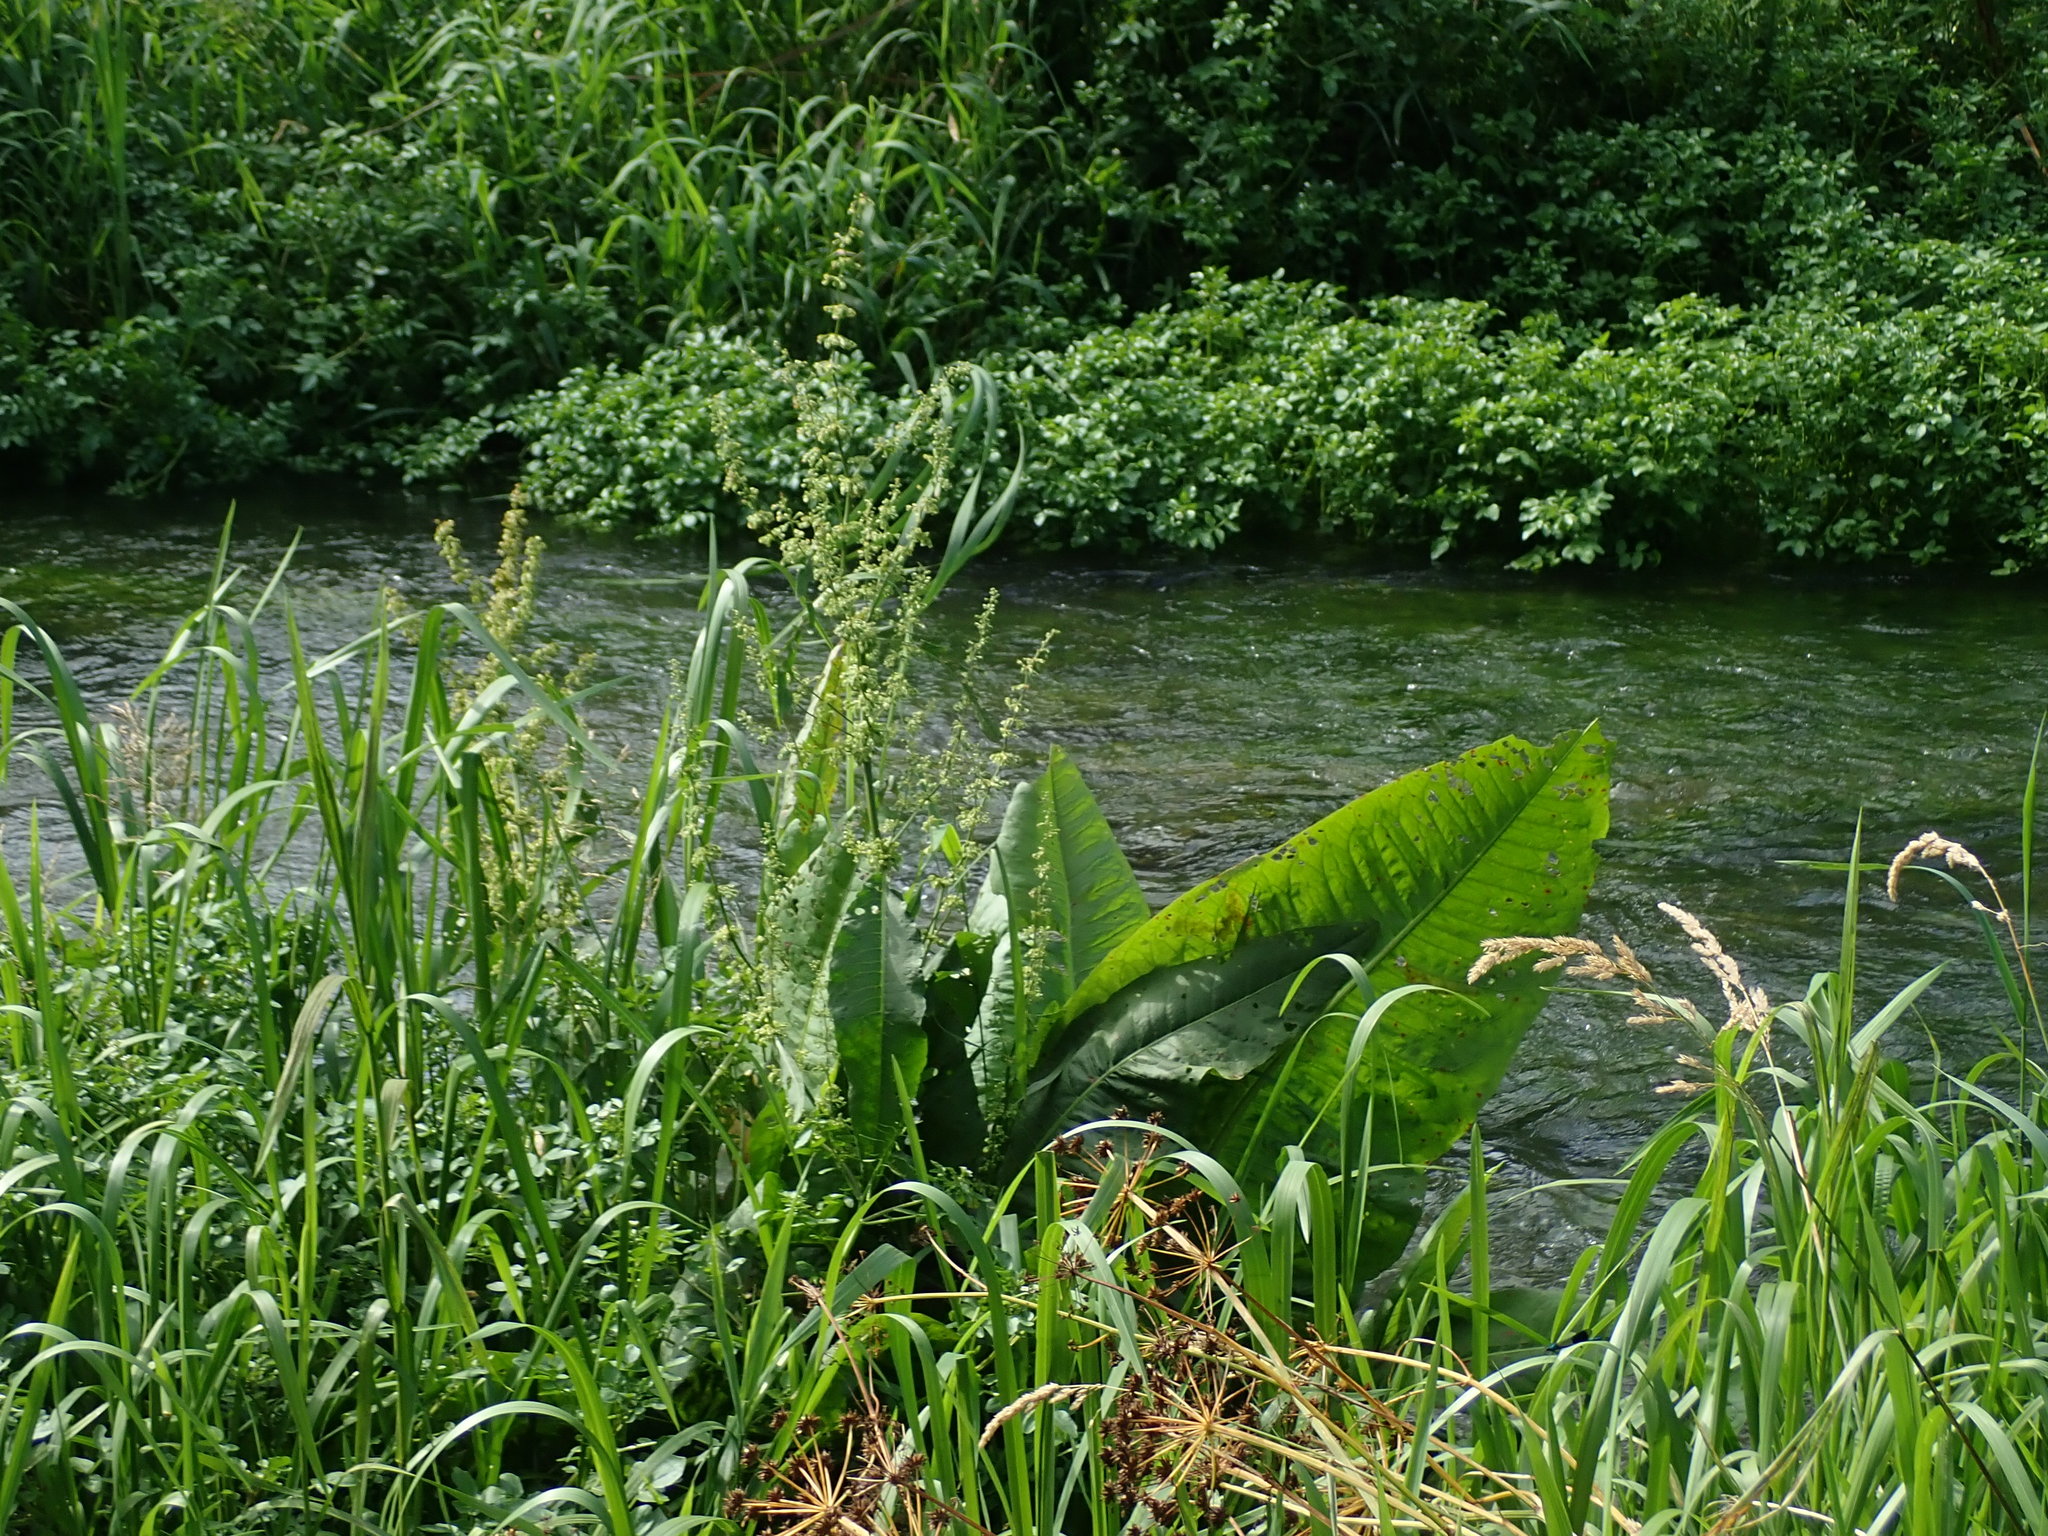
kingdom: Plantae
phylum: Tracheophyta
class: Magnoliopsida
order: Caryophyllales
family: Polygonaceae
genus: Rumex
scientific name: Rumex hydrolapathum
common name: Water dock
